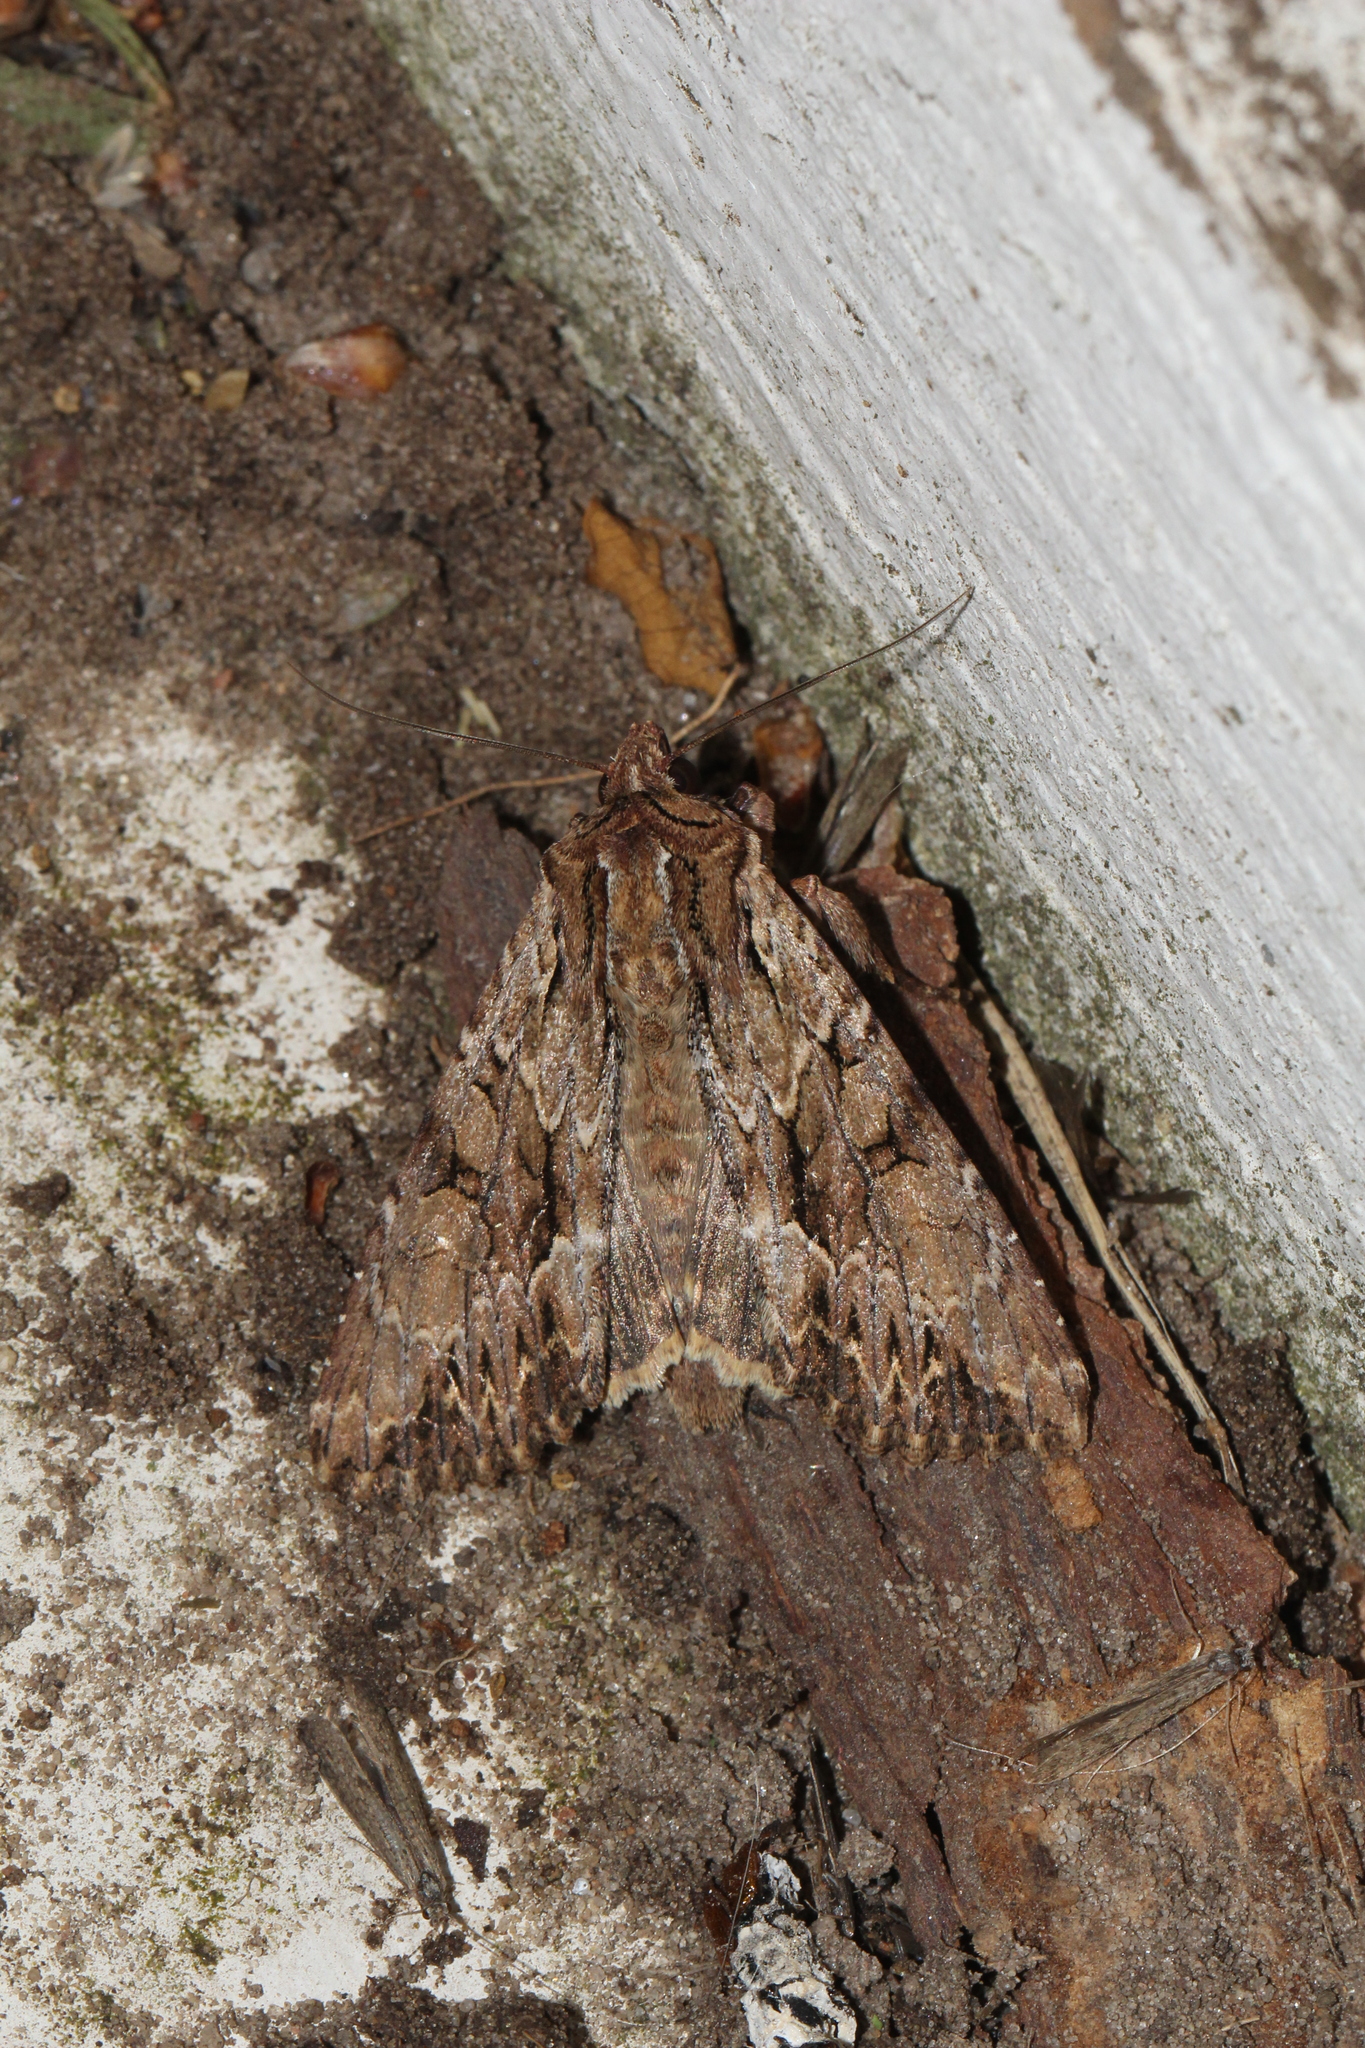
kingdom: Animalia
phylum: Arthropoda
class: Insecta
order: Lepidoptera
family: Noctuidae
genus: Apamea
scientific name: Apamea monoglypha
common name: Dark arches
